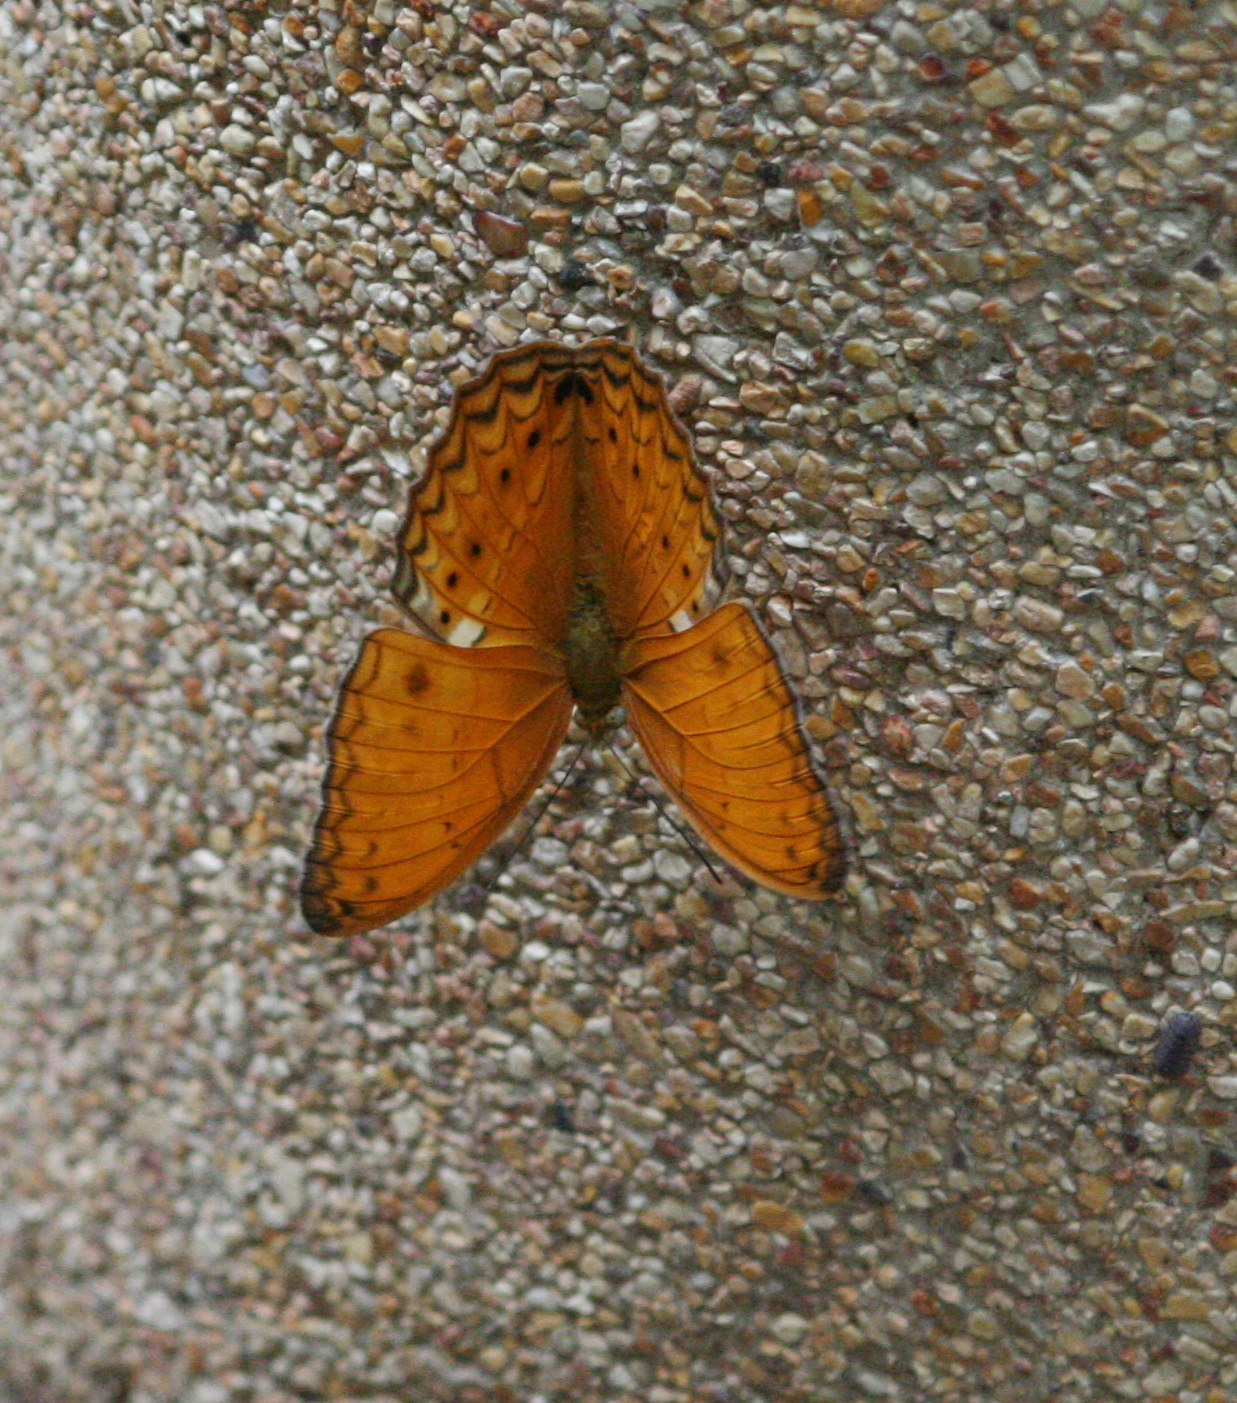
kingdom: Animalia
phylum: Arthropoda
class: Insecta
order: Lepidoptera
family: Nymphalidae
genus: Cirrochroa
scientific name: Cirrochroa tyche
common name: Common yeoman
